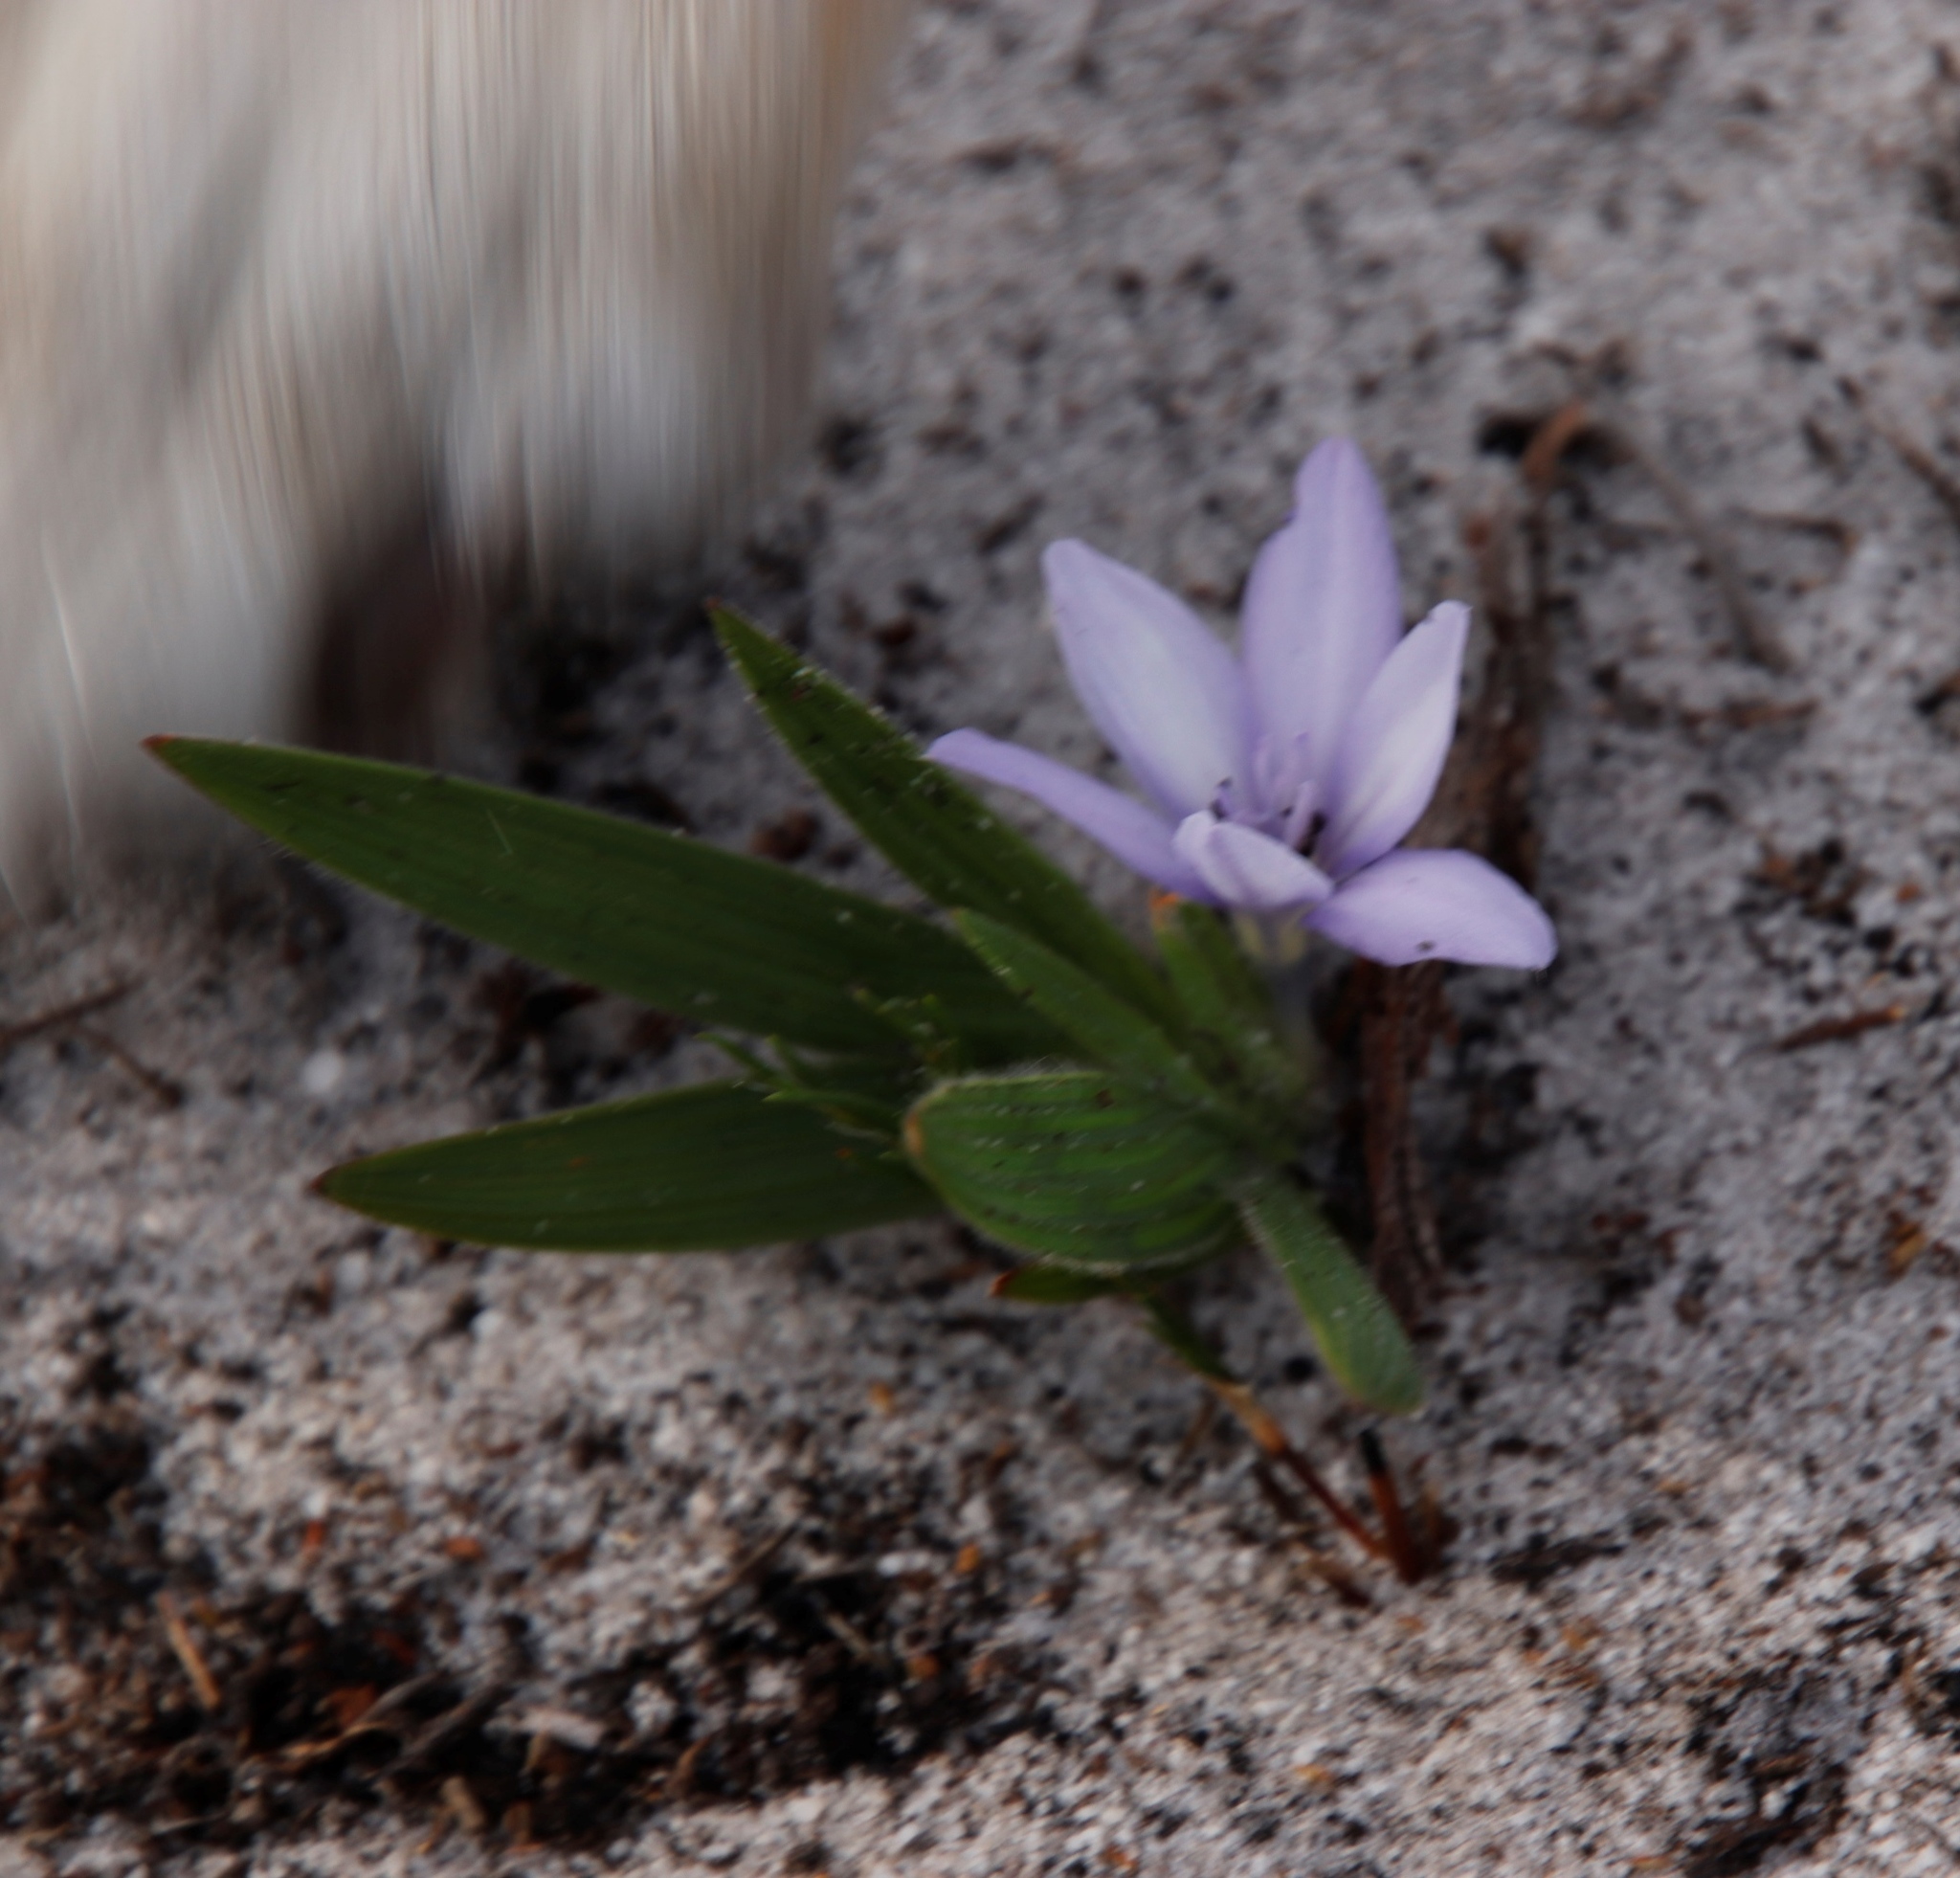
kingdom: Plantae
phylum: Tracheophyta
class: Liliopsida
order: Asparagales
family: Iridaceae
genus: Babiana
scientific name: Babiana villosula
